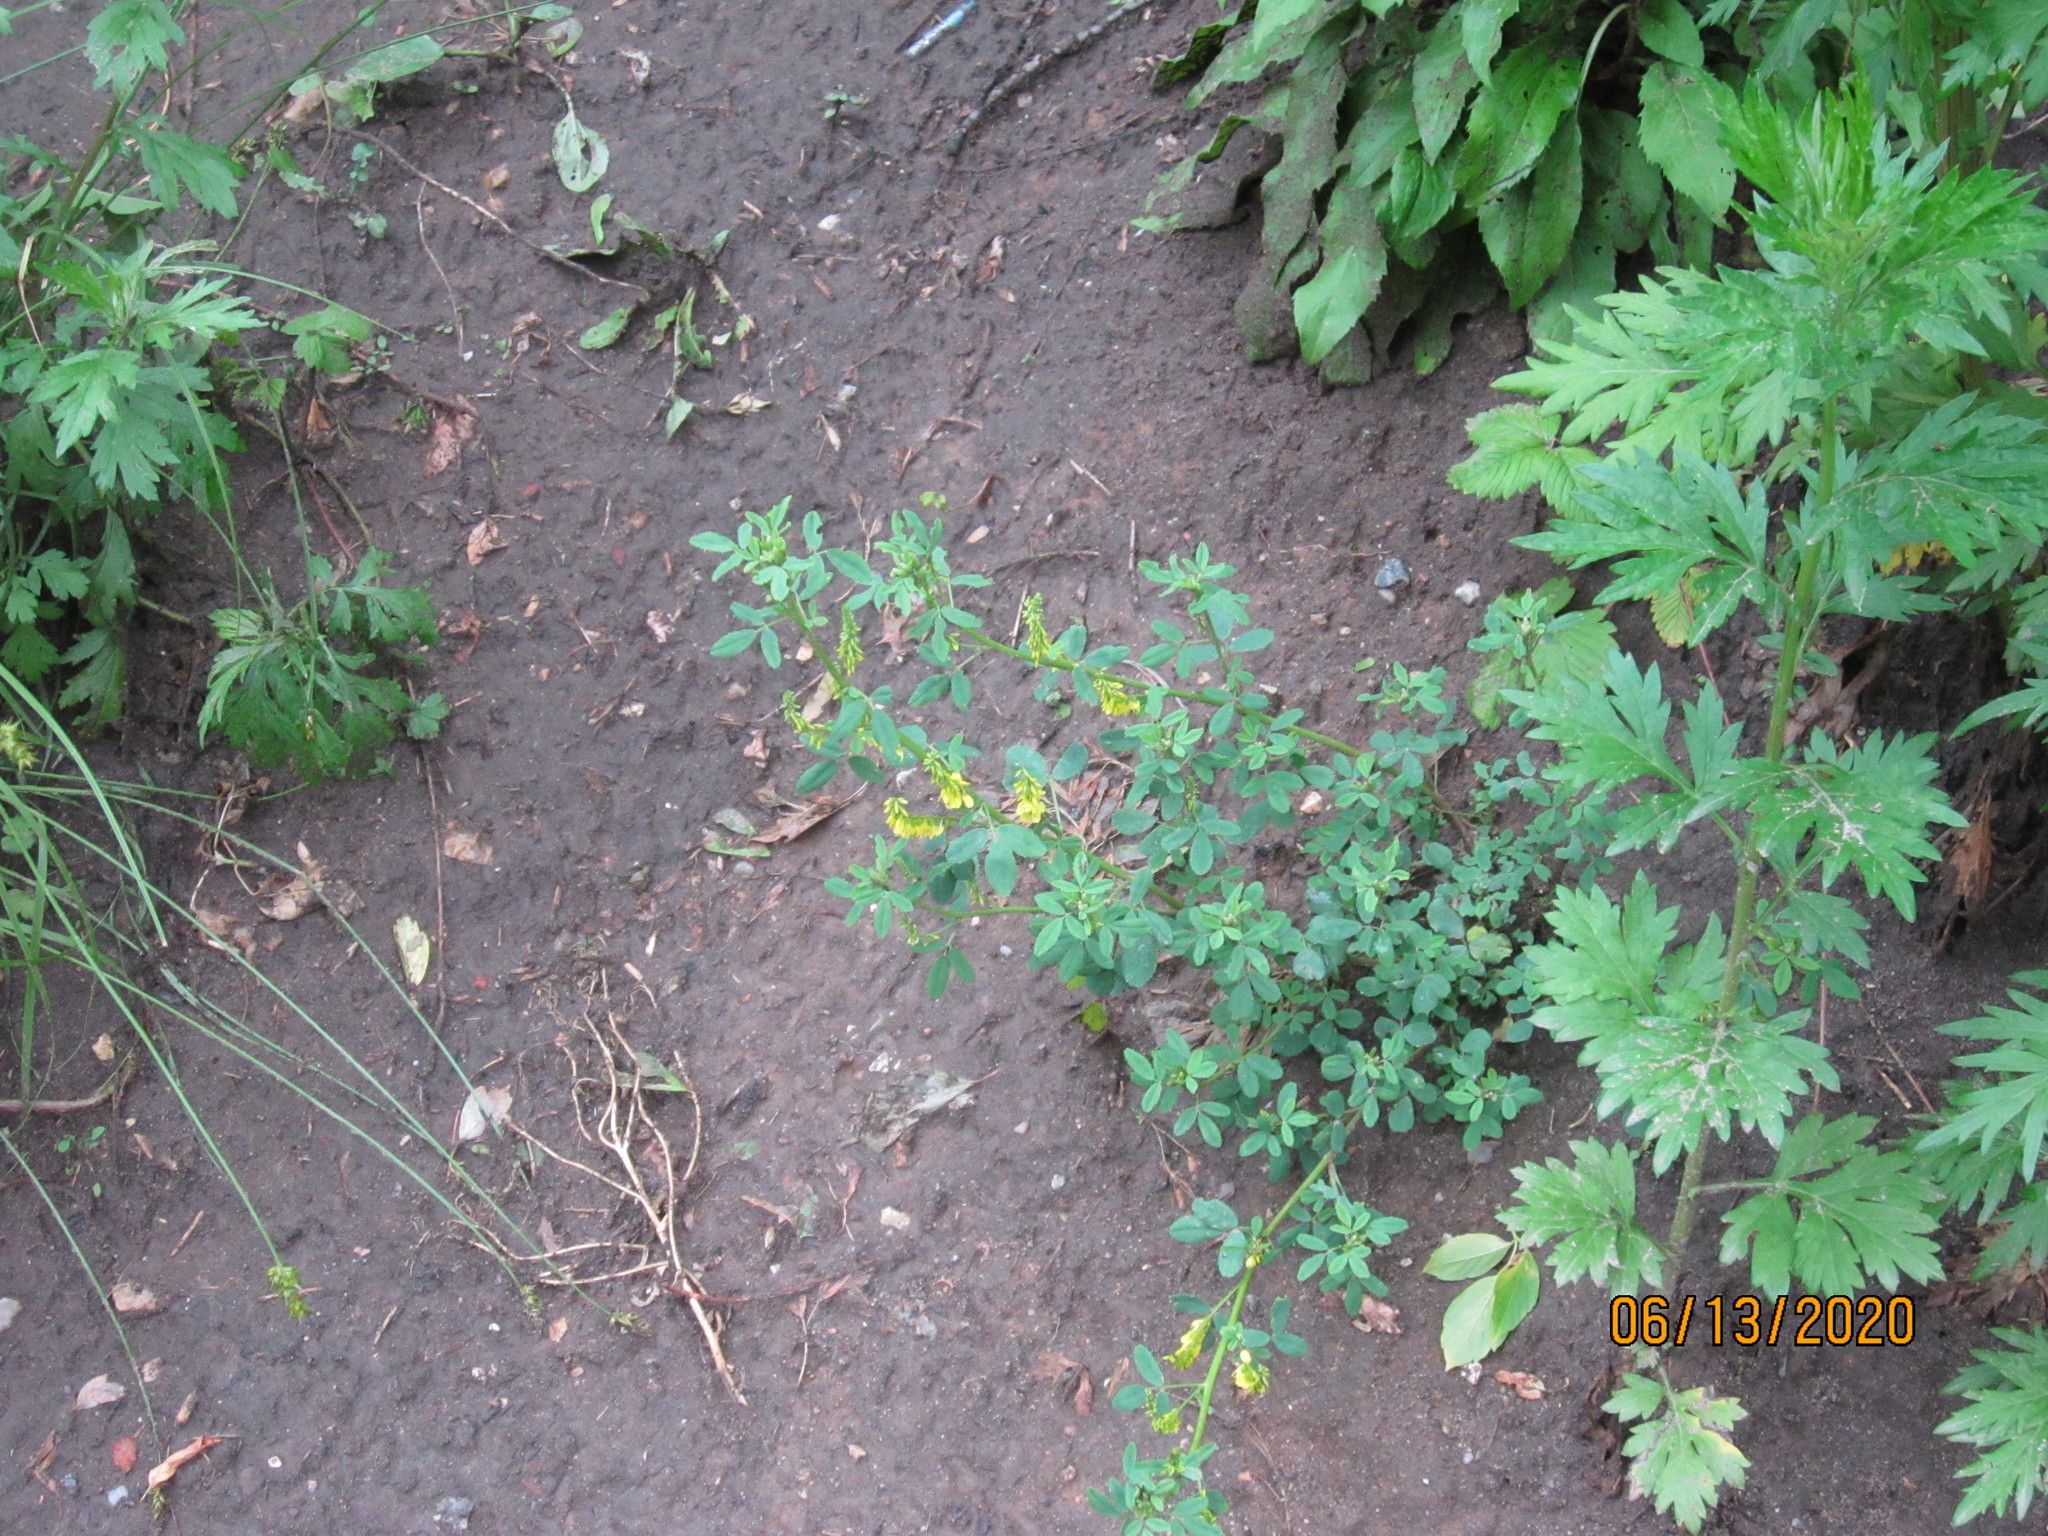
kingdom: Plantae
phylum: Tracheophyta
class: Magnoliopsida
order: Fabales
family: Fabaceae
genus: Melilotus
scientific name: Melilotus officinalis
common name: Sweetclover
